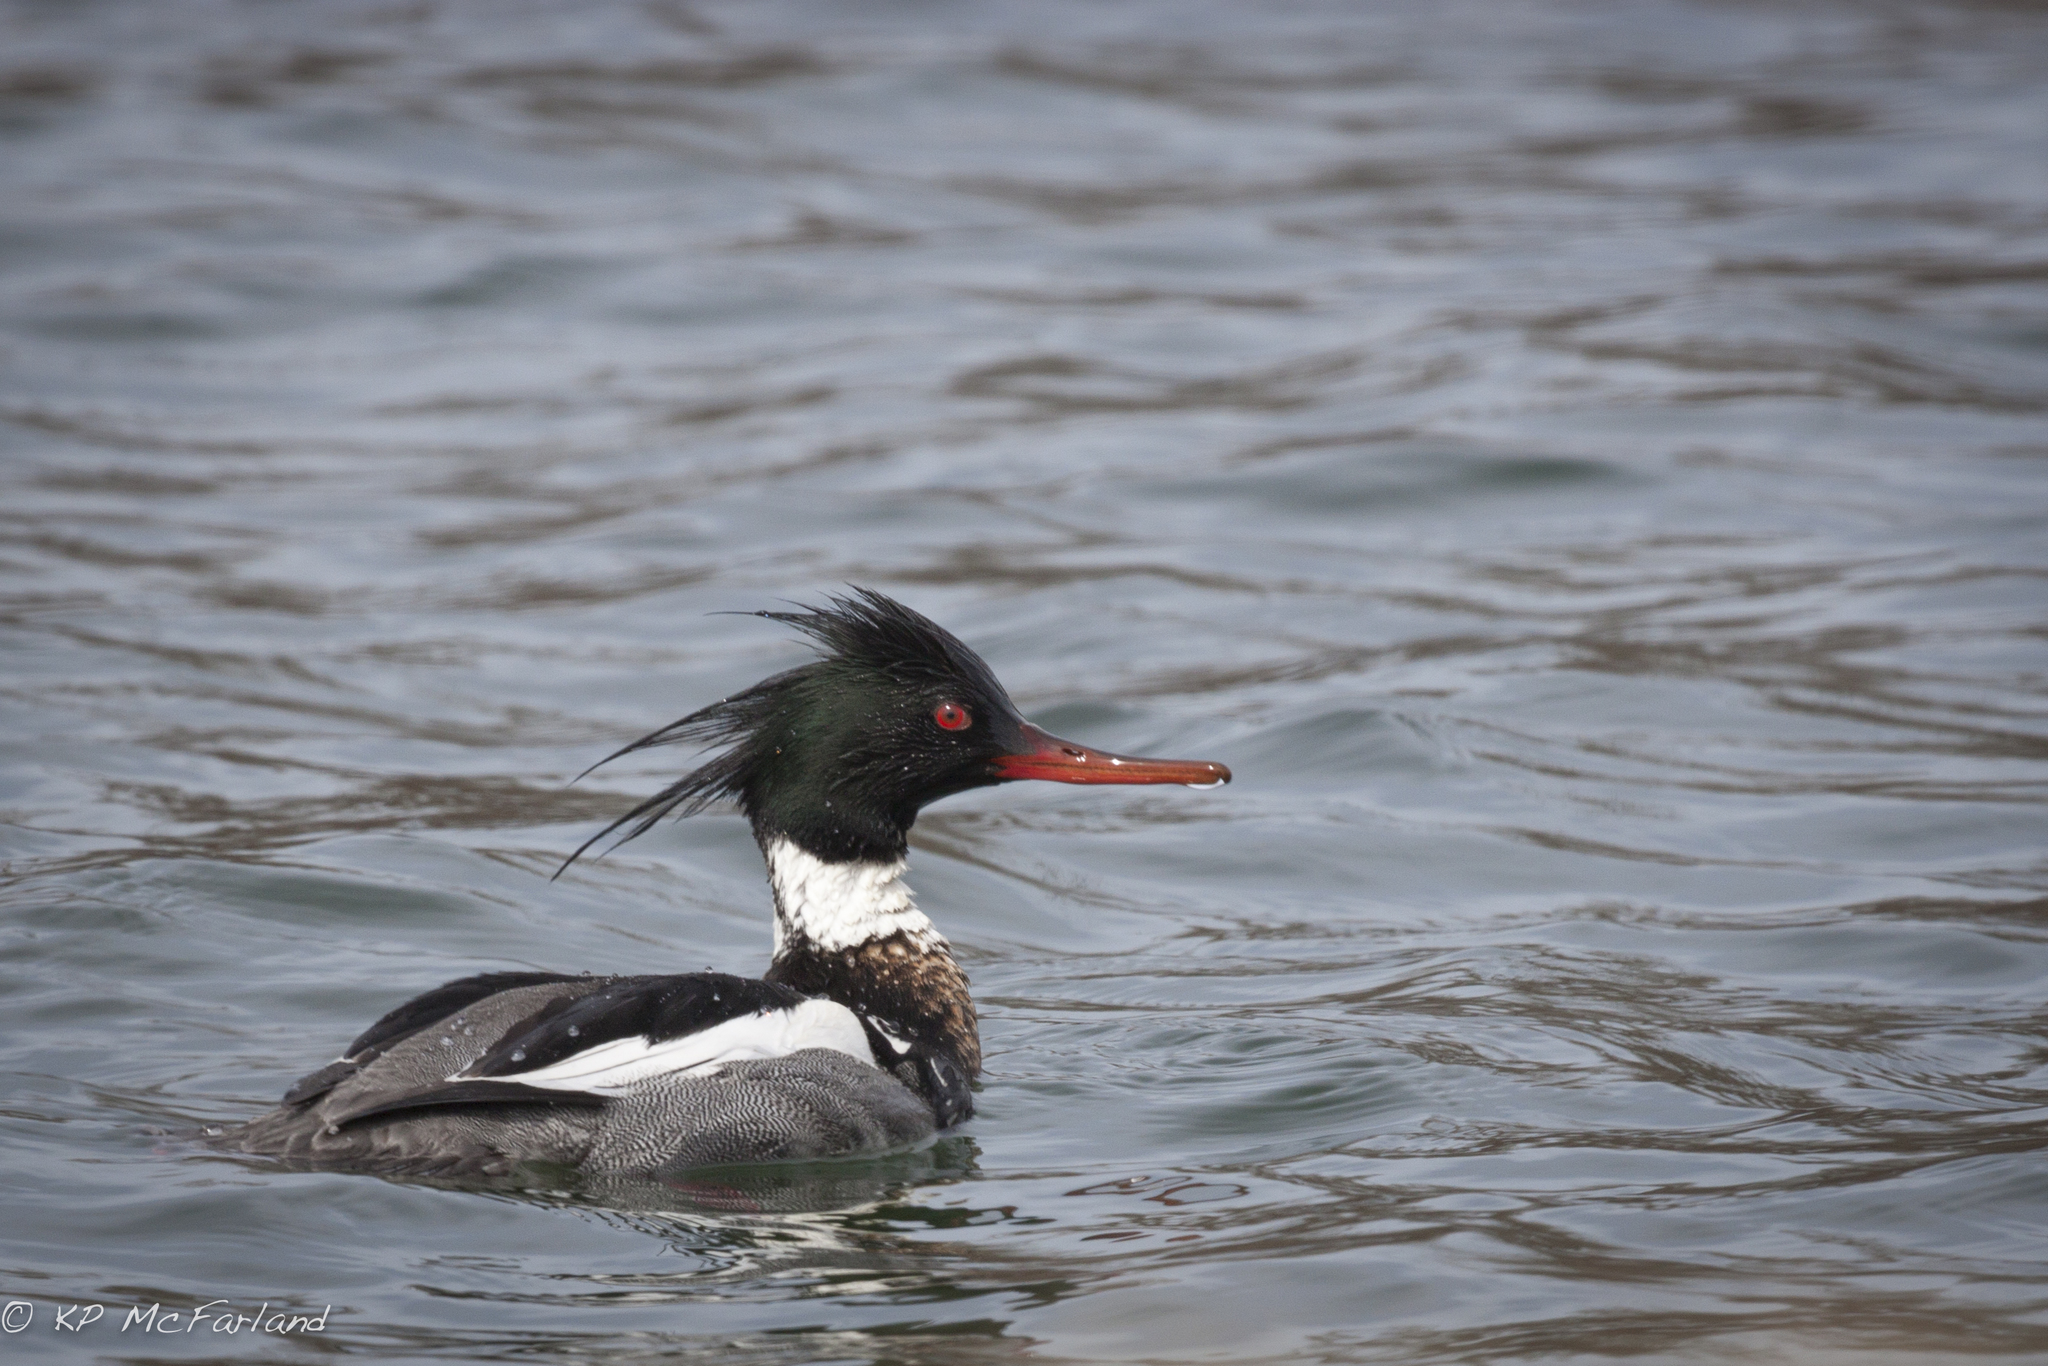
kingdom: Animalia
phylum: Chordata
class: Aves
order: Anseriformes
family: Anatidae
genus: Mergus
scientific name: Mergus serrator
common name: Red-breasted merganser
